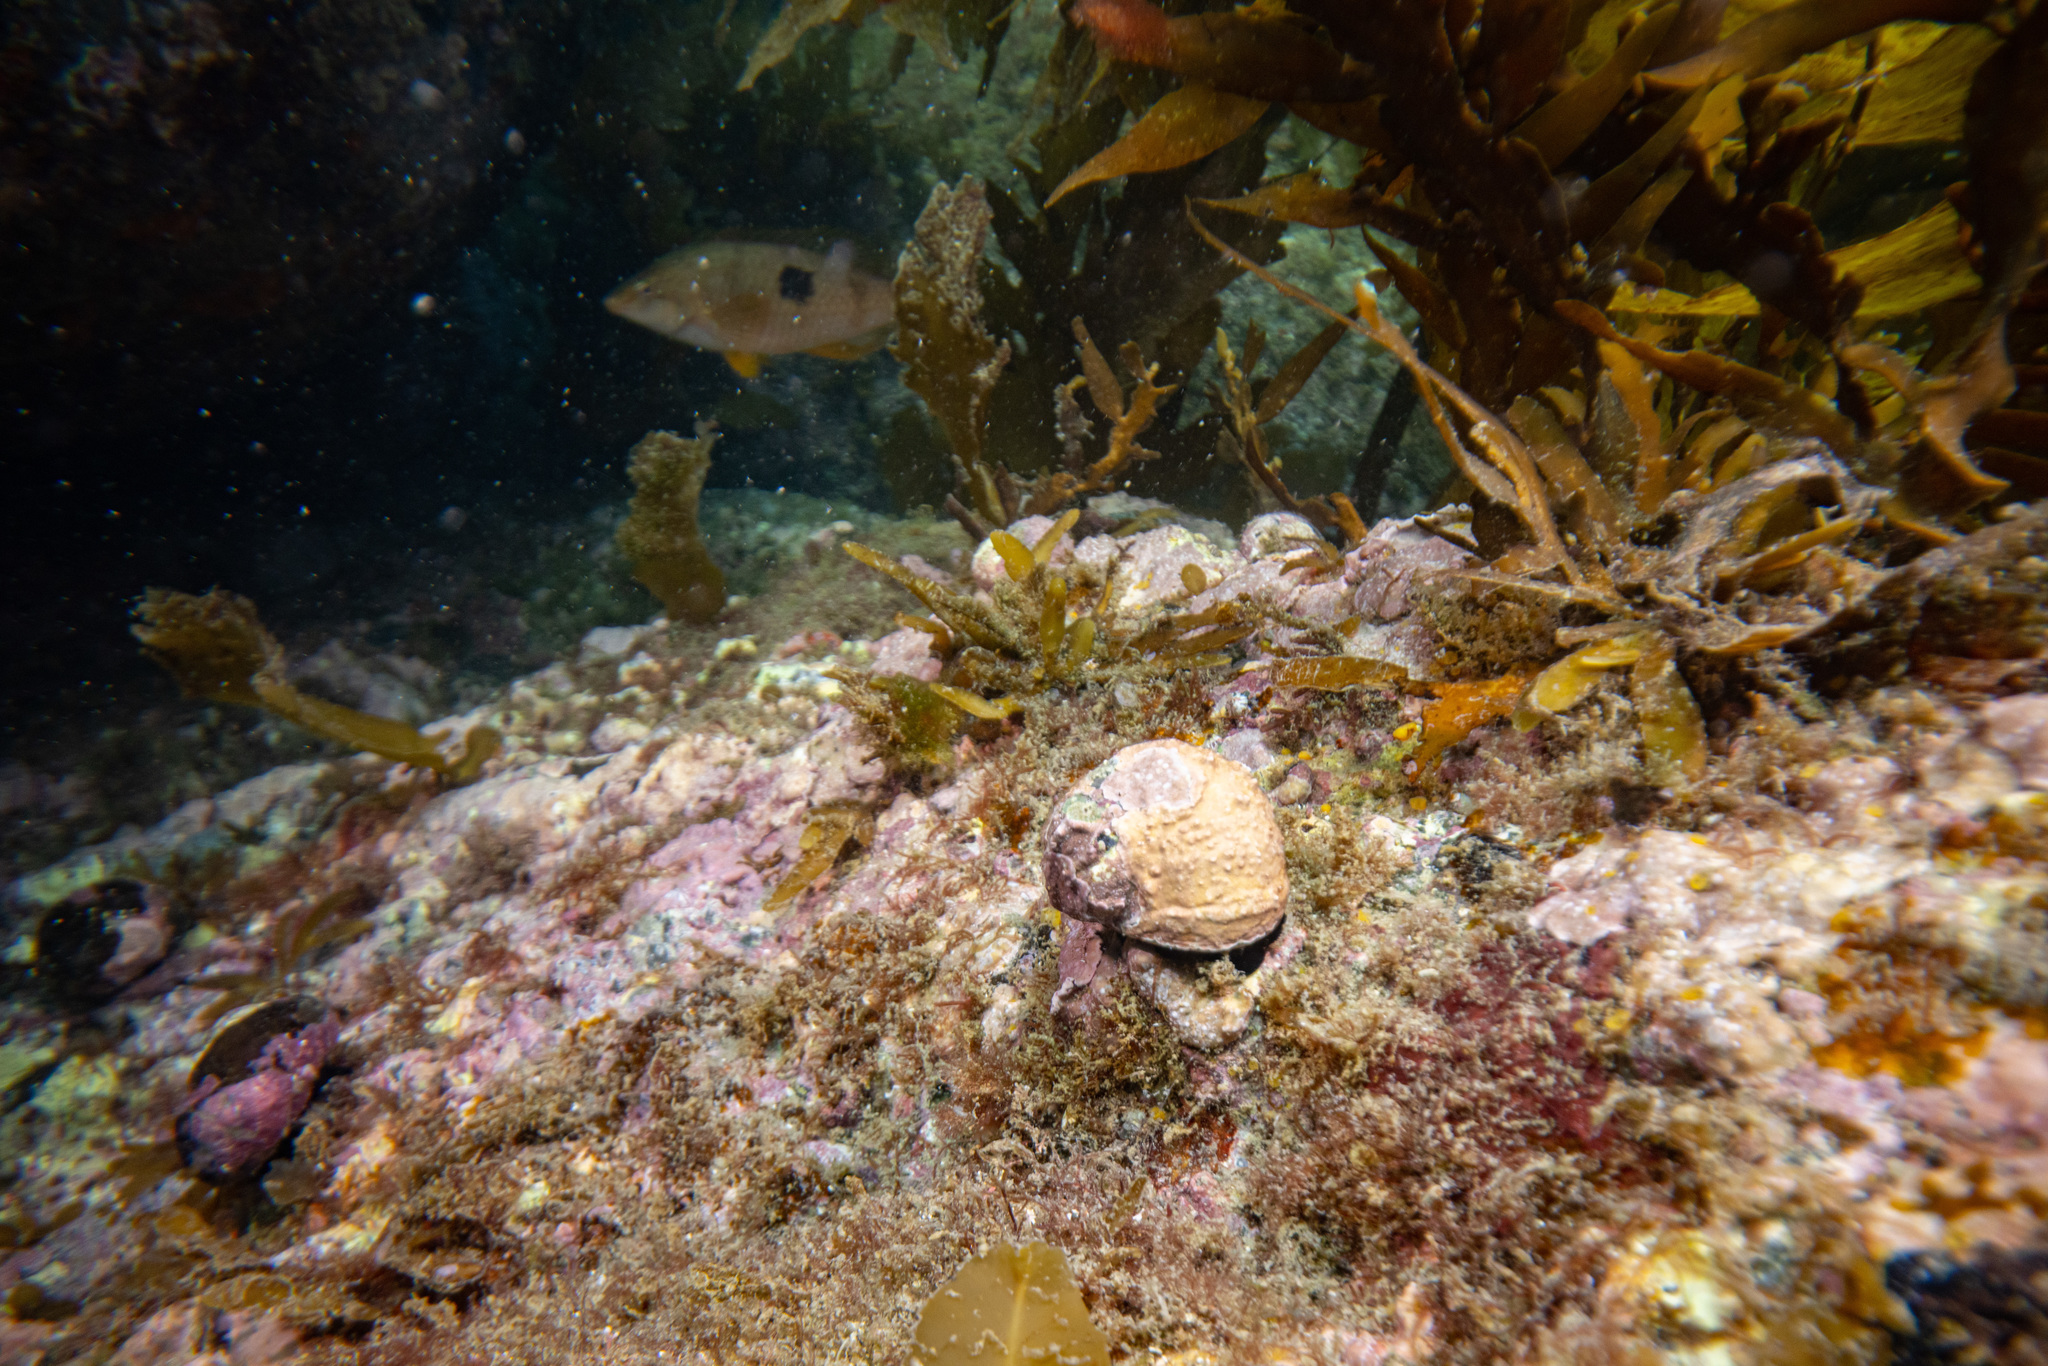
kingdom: Animalia
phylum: Mollusca
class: Gastropoda
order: Trochida
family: Turbinidae
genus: Lunella
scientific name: Lunella smaragda
